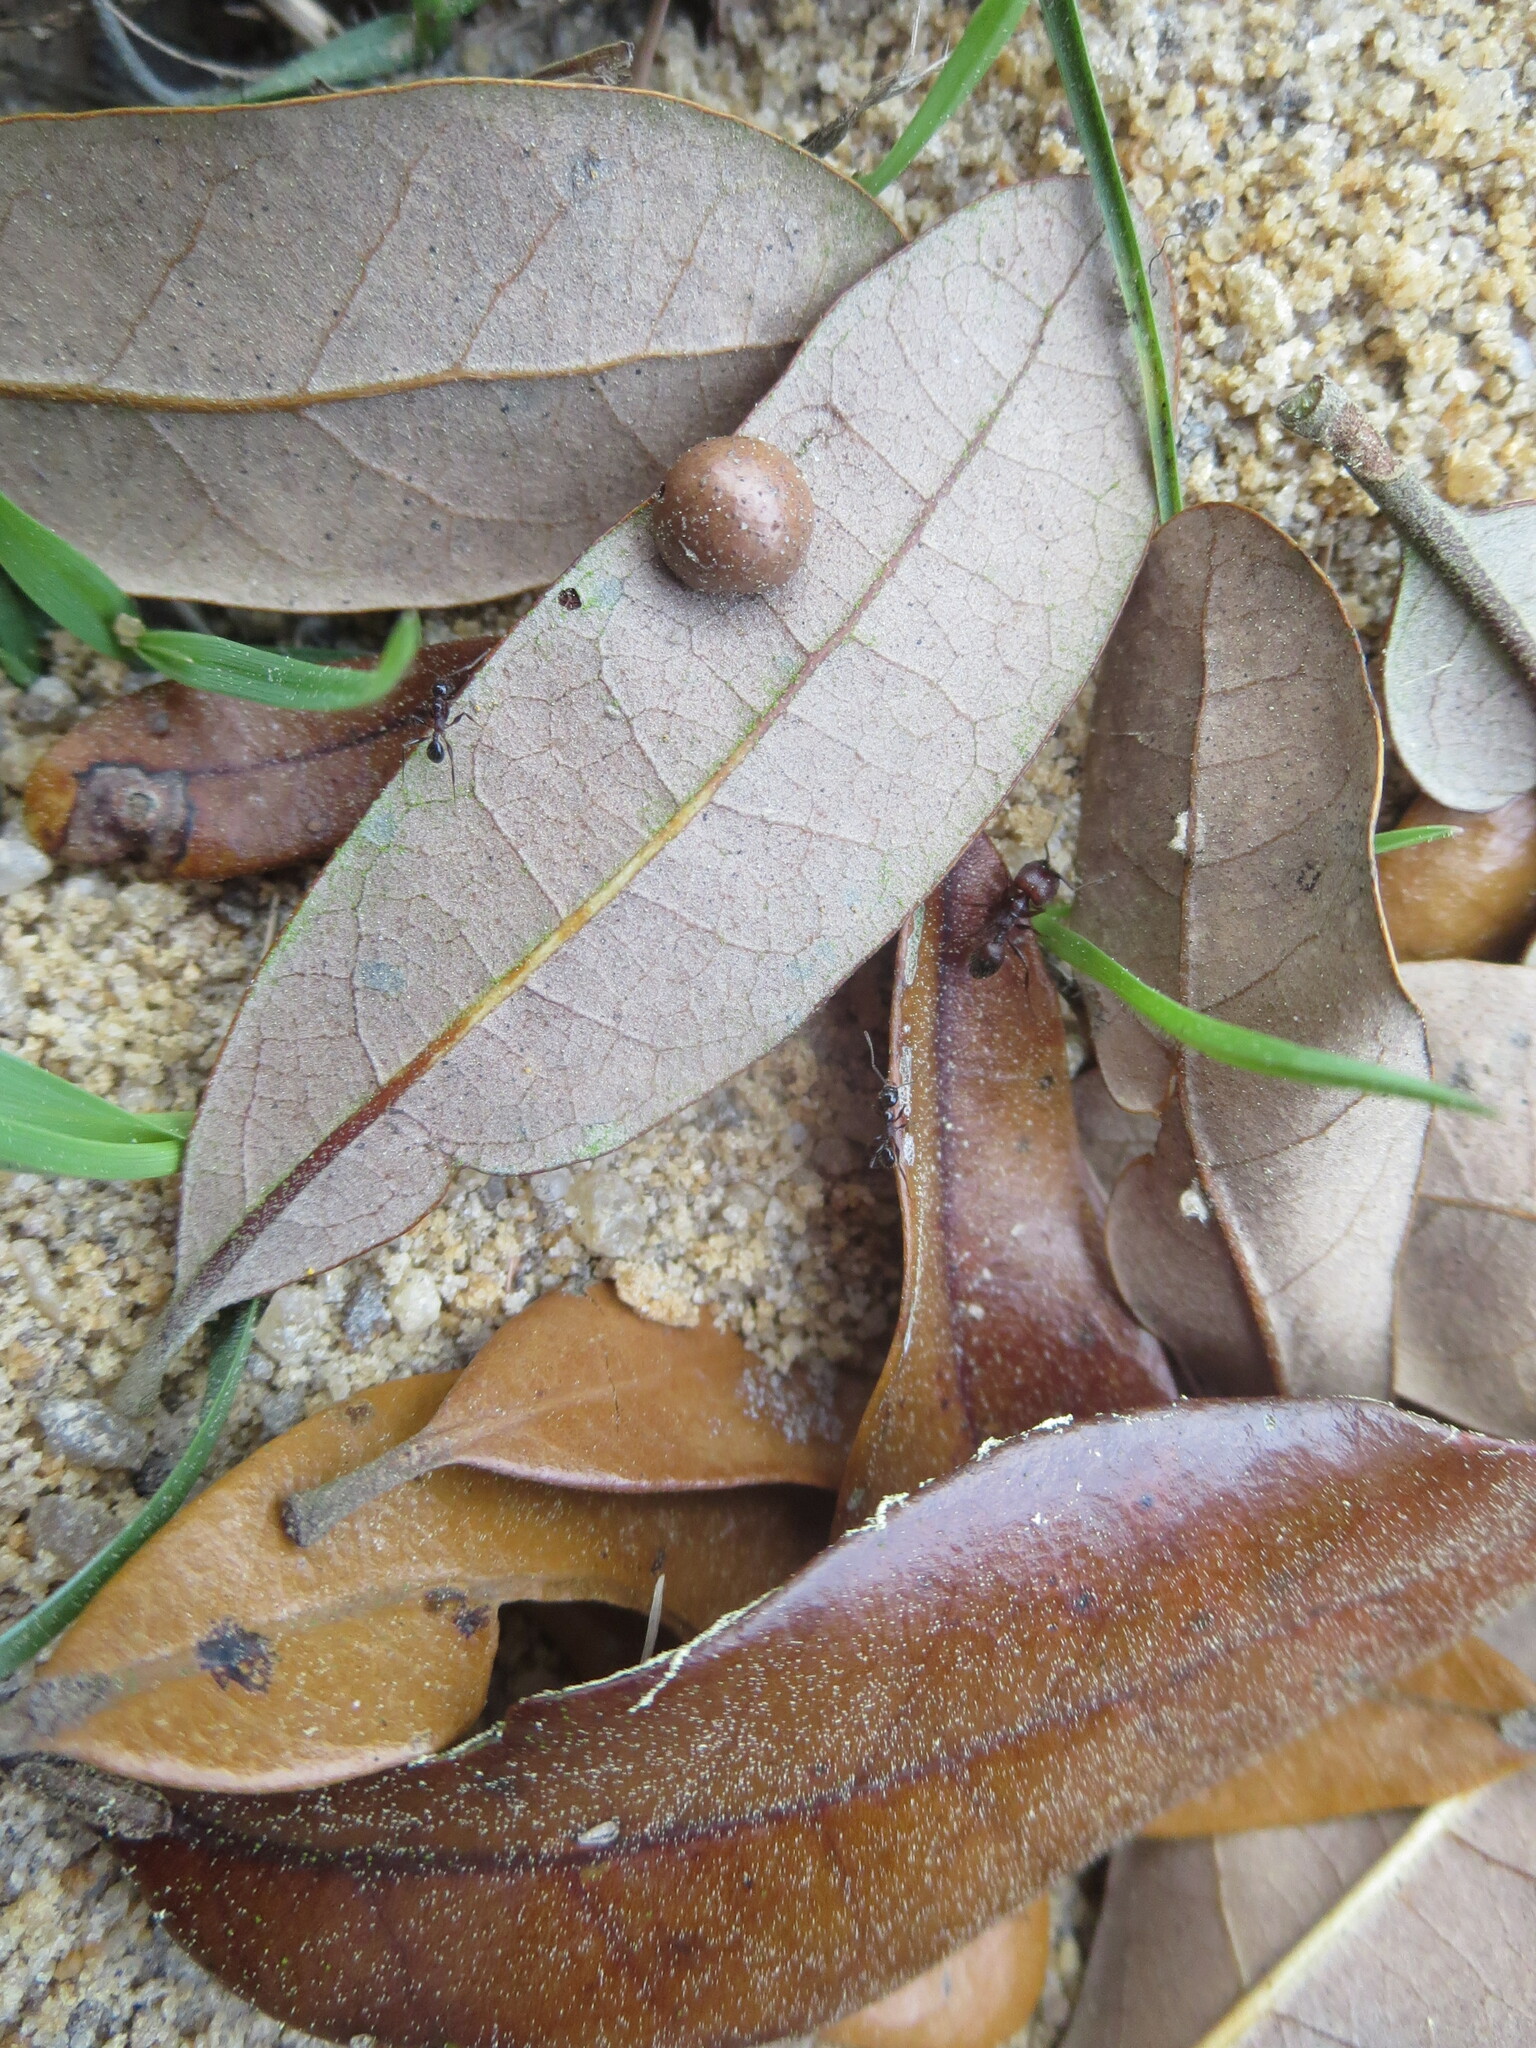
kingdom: Animalia
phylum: Arthropoda
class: Insecta
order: Hymenoptera
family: Formicidae
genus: Pheidole
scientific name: Pheidole obscurithorax
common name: Obscure big-headed ant
